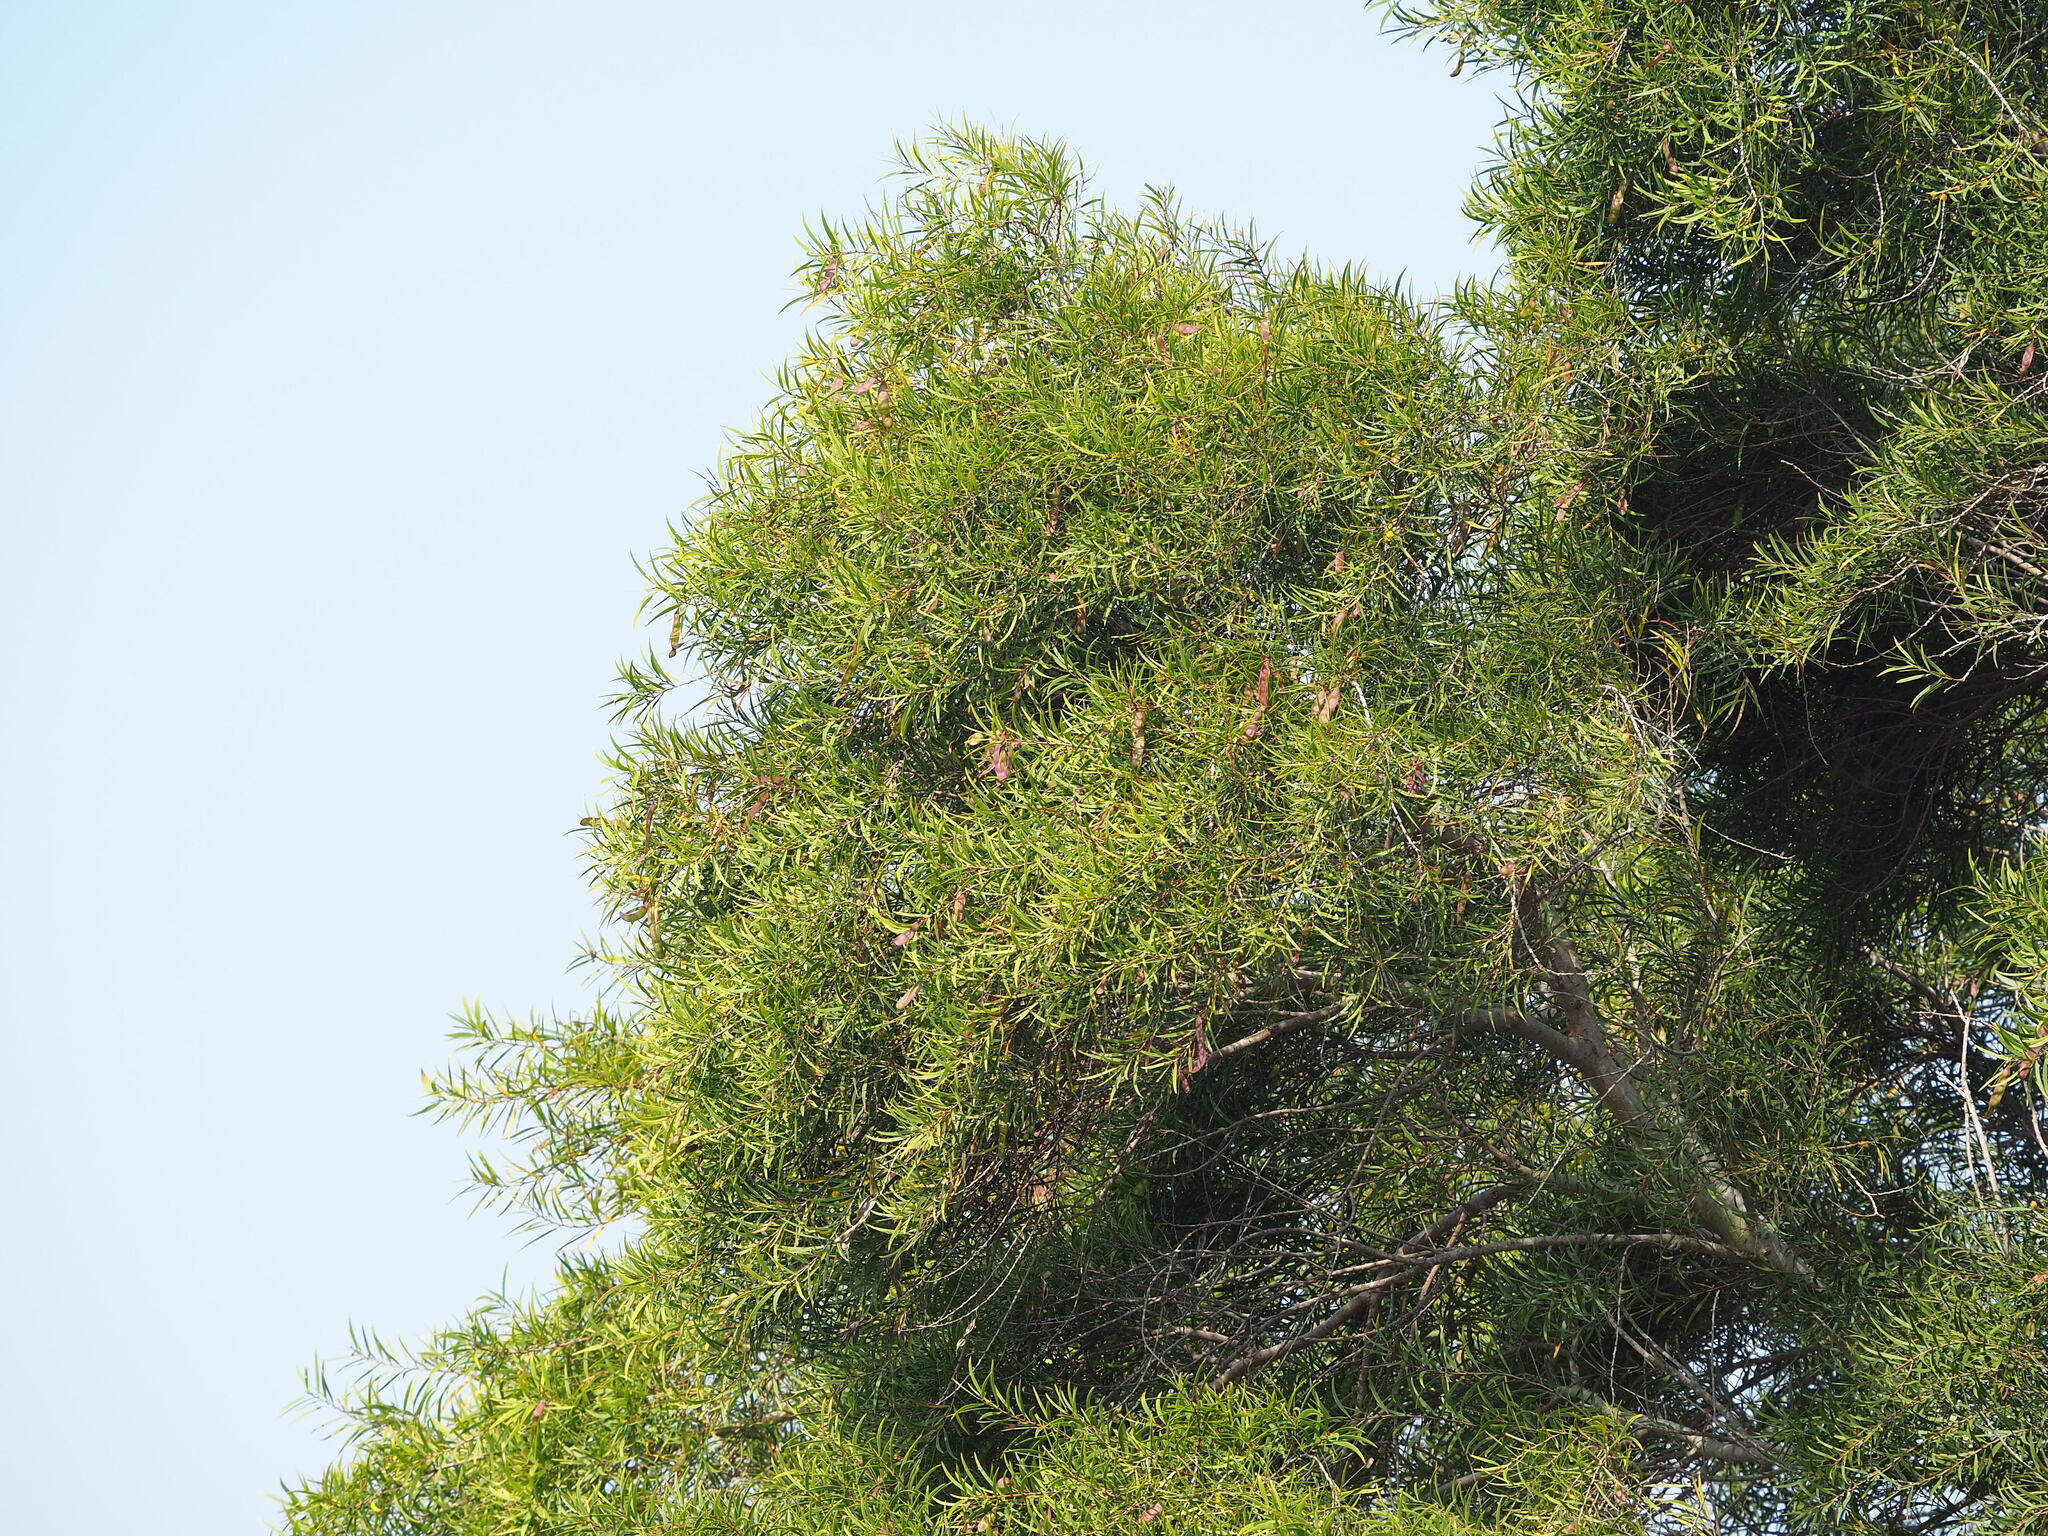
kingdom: Plantae
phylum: Tracheophyta
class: Magnoliopsida
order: Fabales
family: Fabaceae
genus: Acacia
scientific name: Acacia confusa
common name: Formosan koa
